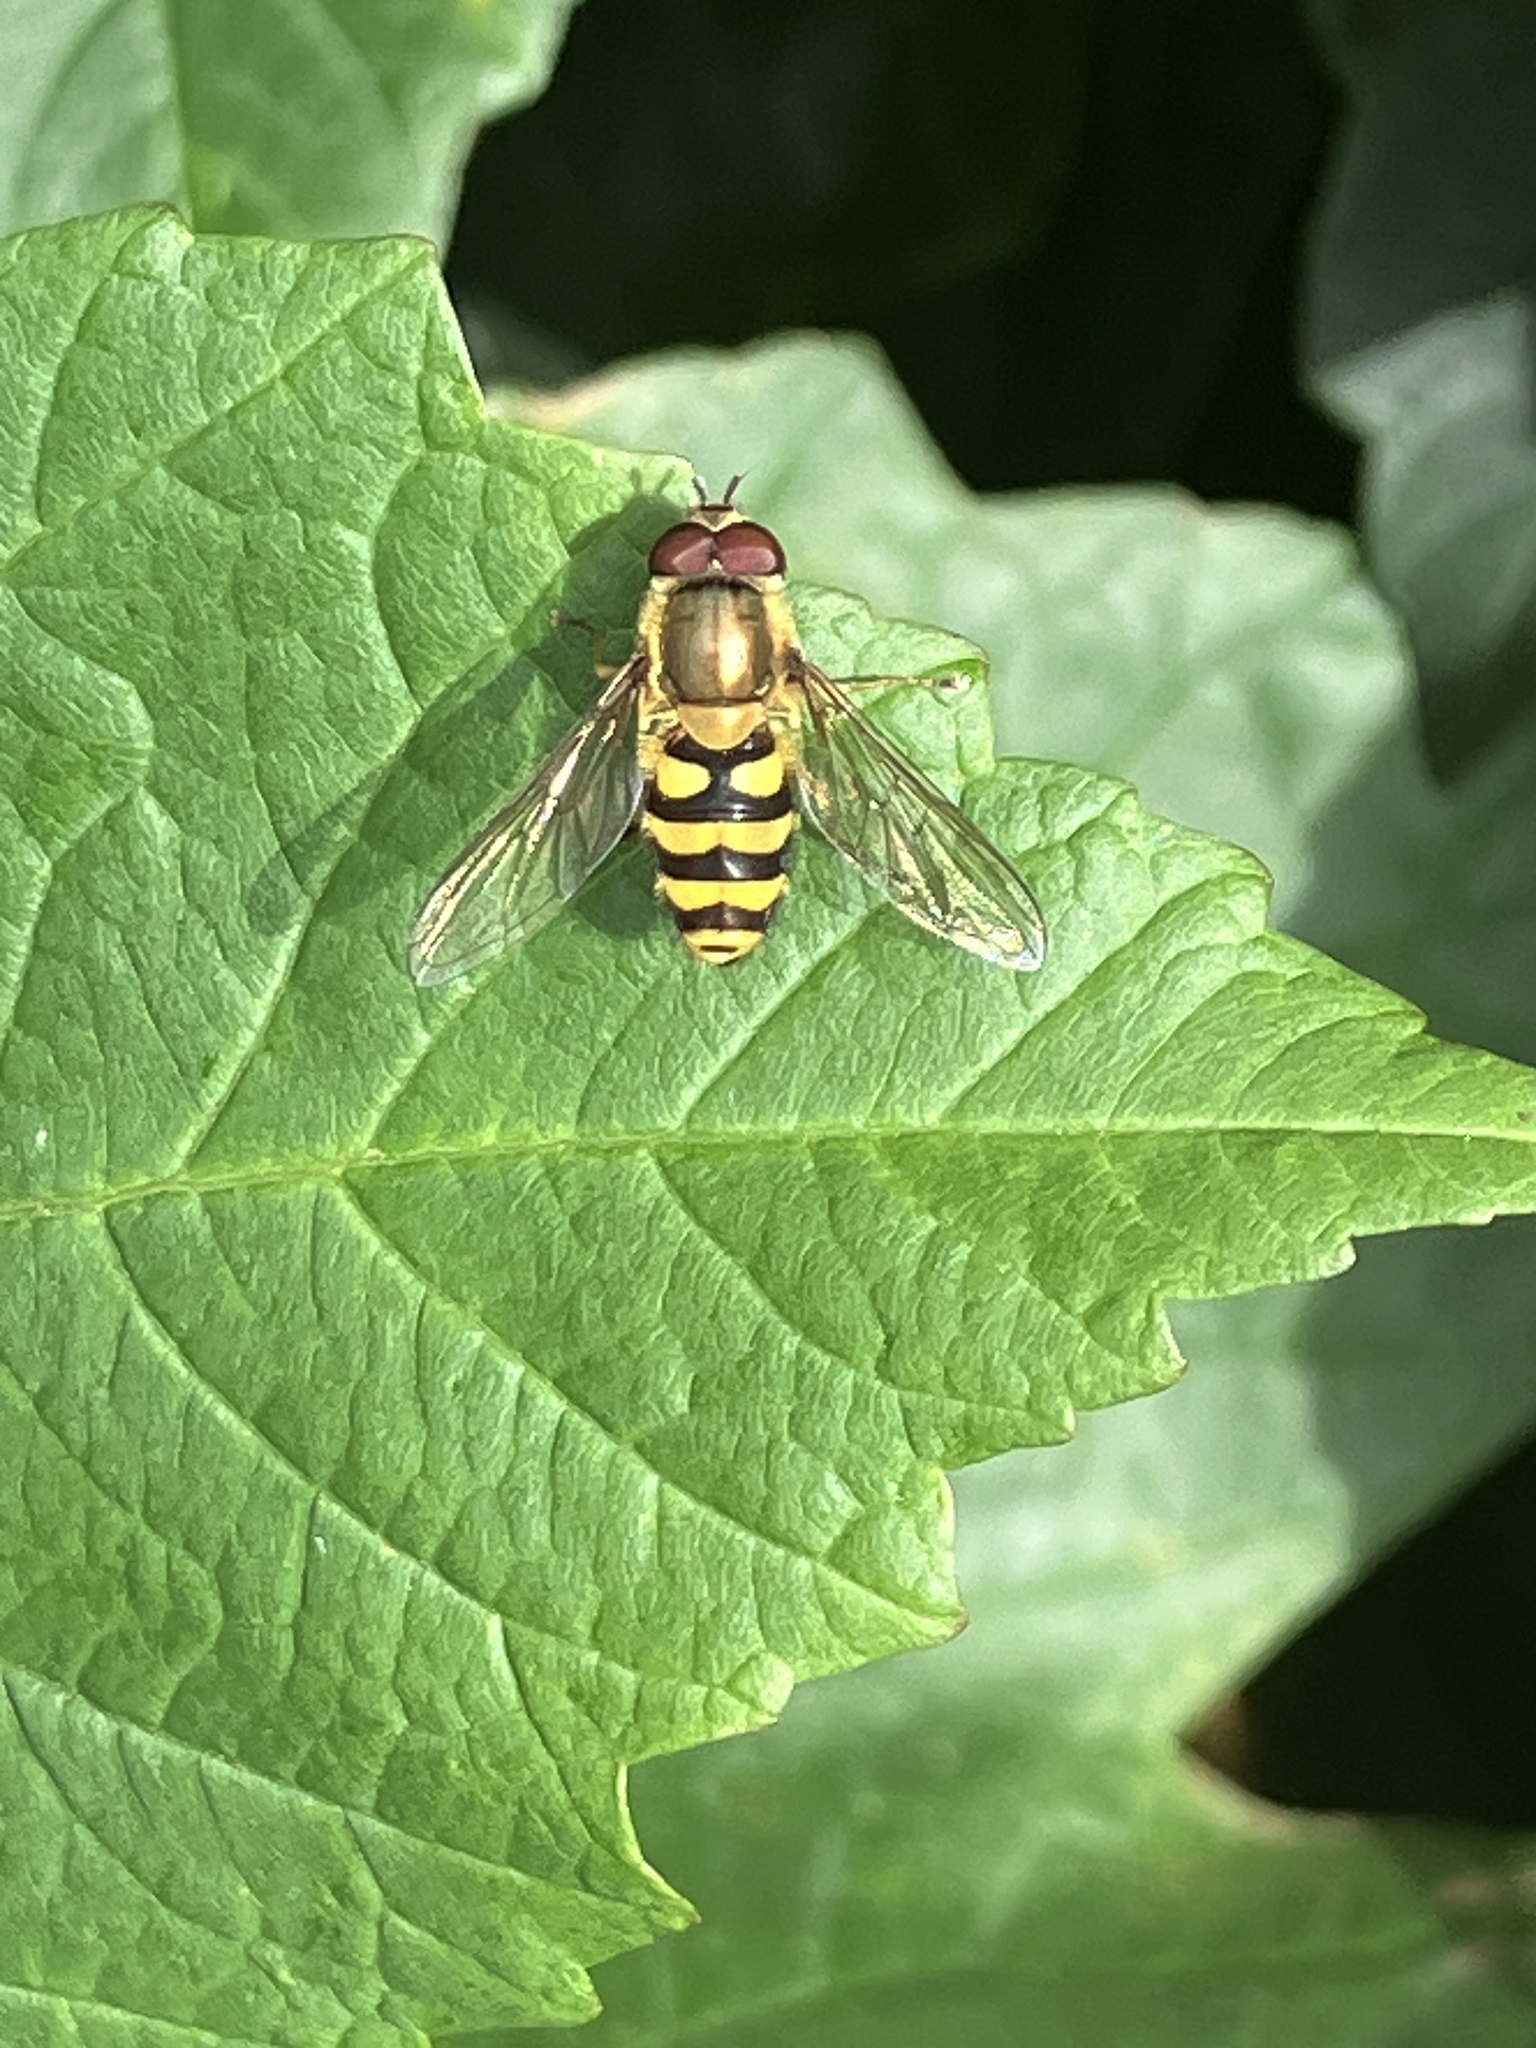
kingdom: Animalia
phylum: Arthropoda
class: Insecta
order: Diptera
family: Syrphidae
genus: Syrphus
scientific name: Syrphus
